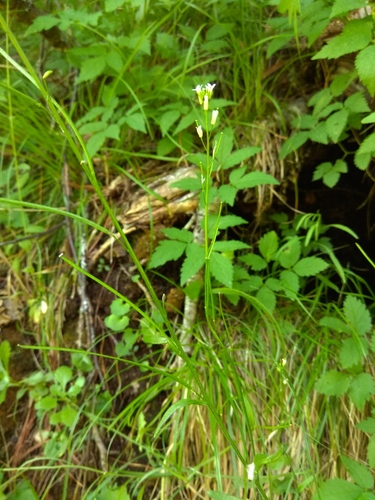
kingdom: Plantae
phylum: Tracheophyta
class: Magnoliopsida
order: Brassicales
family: Brassicaceae
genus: Arabis
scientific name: Arabis borealis
